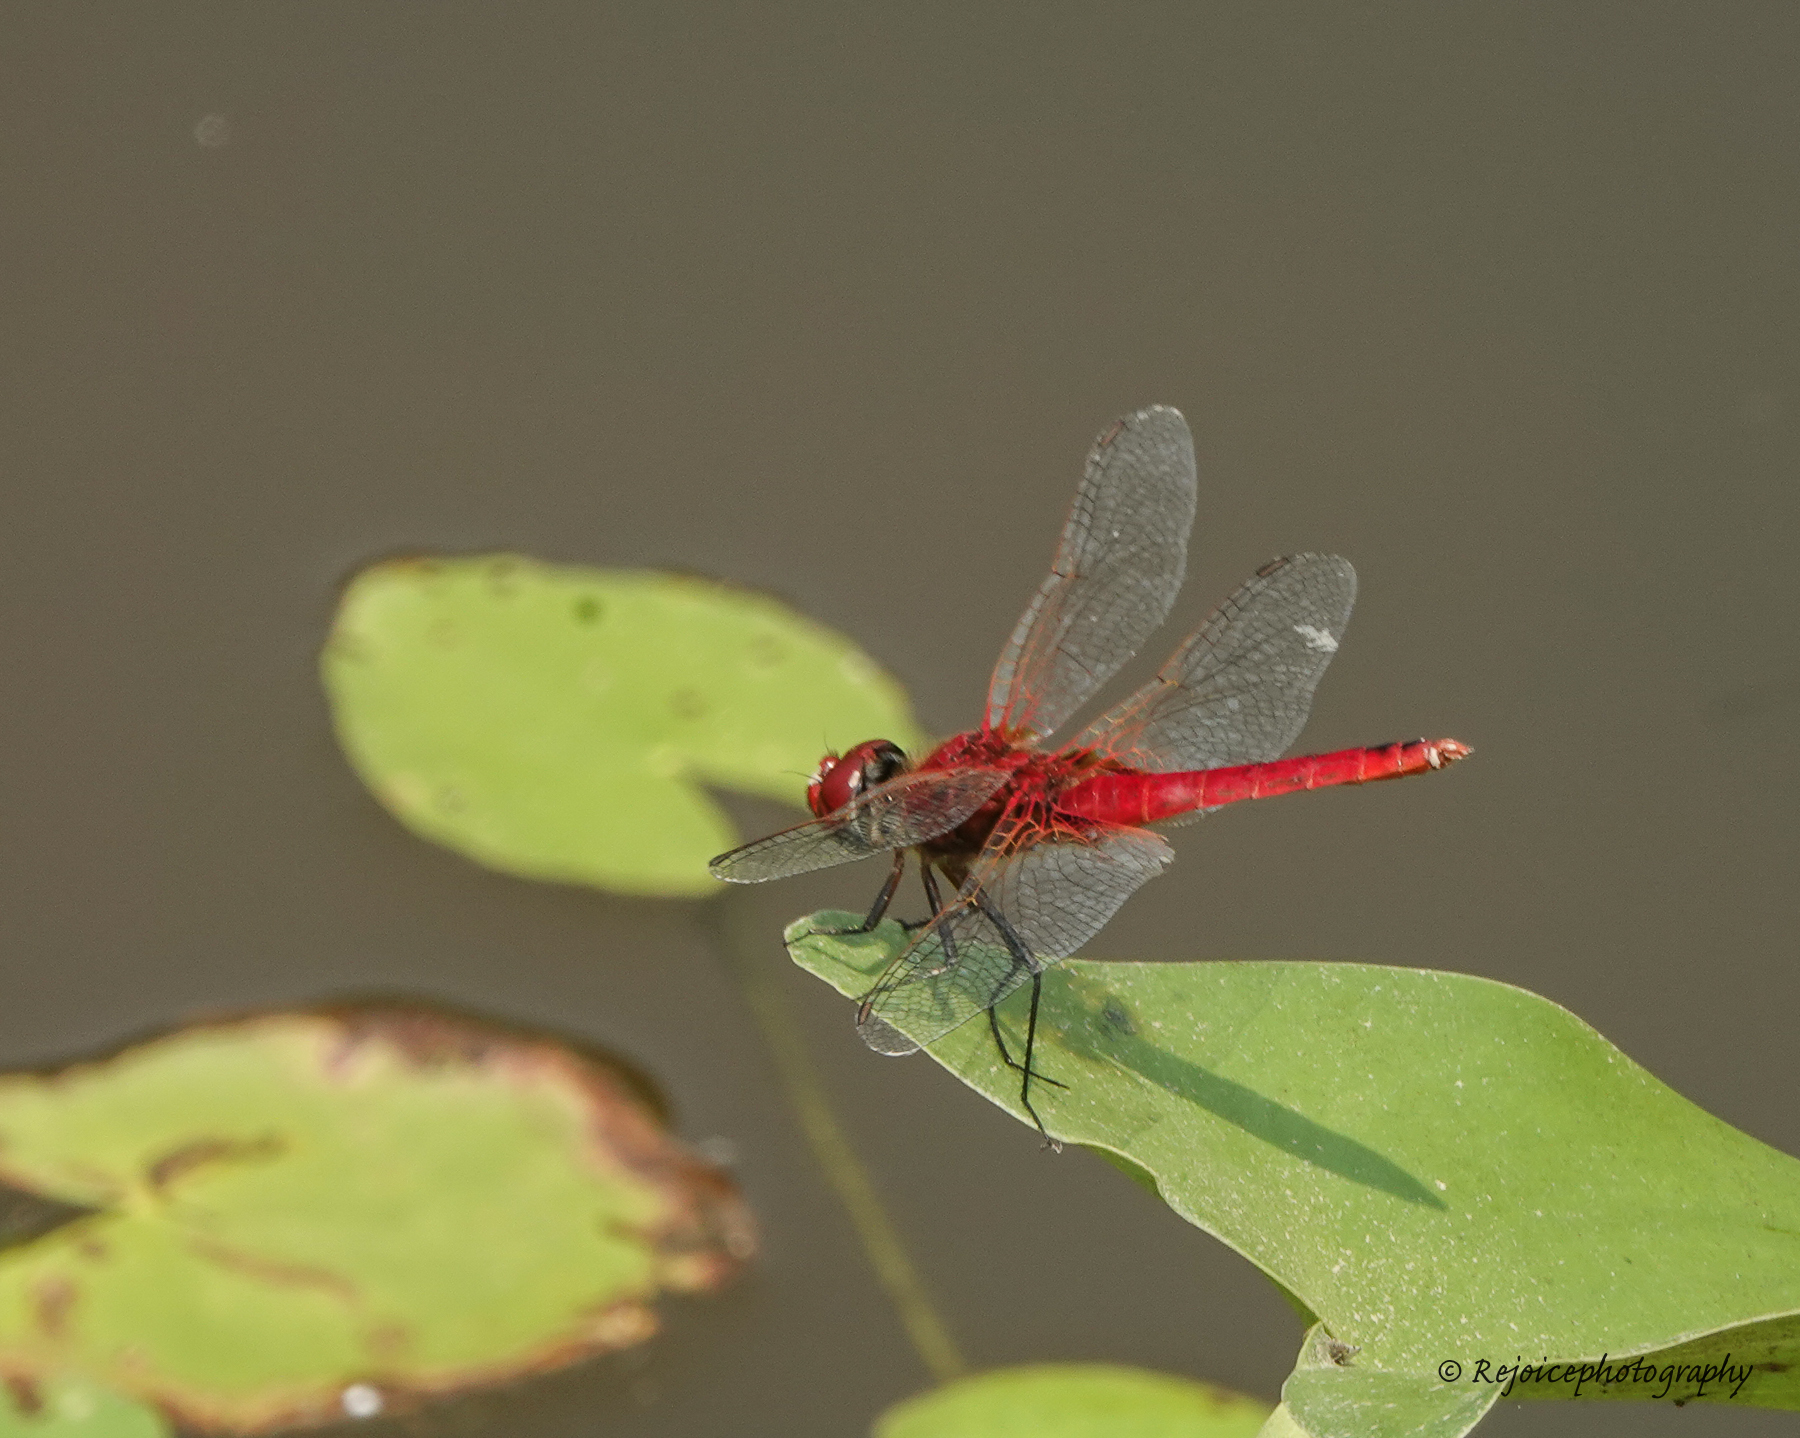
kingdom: Animalia
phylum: Arthropoda
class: Insecta
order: Odonata
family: Libellulidae
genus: Urothemis
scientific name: Urothemis signata
